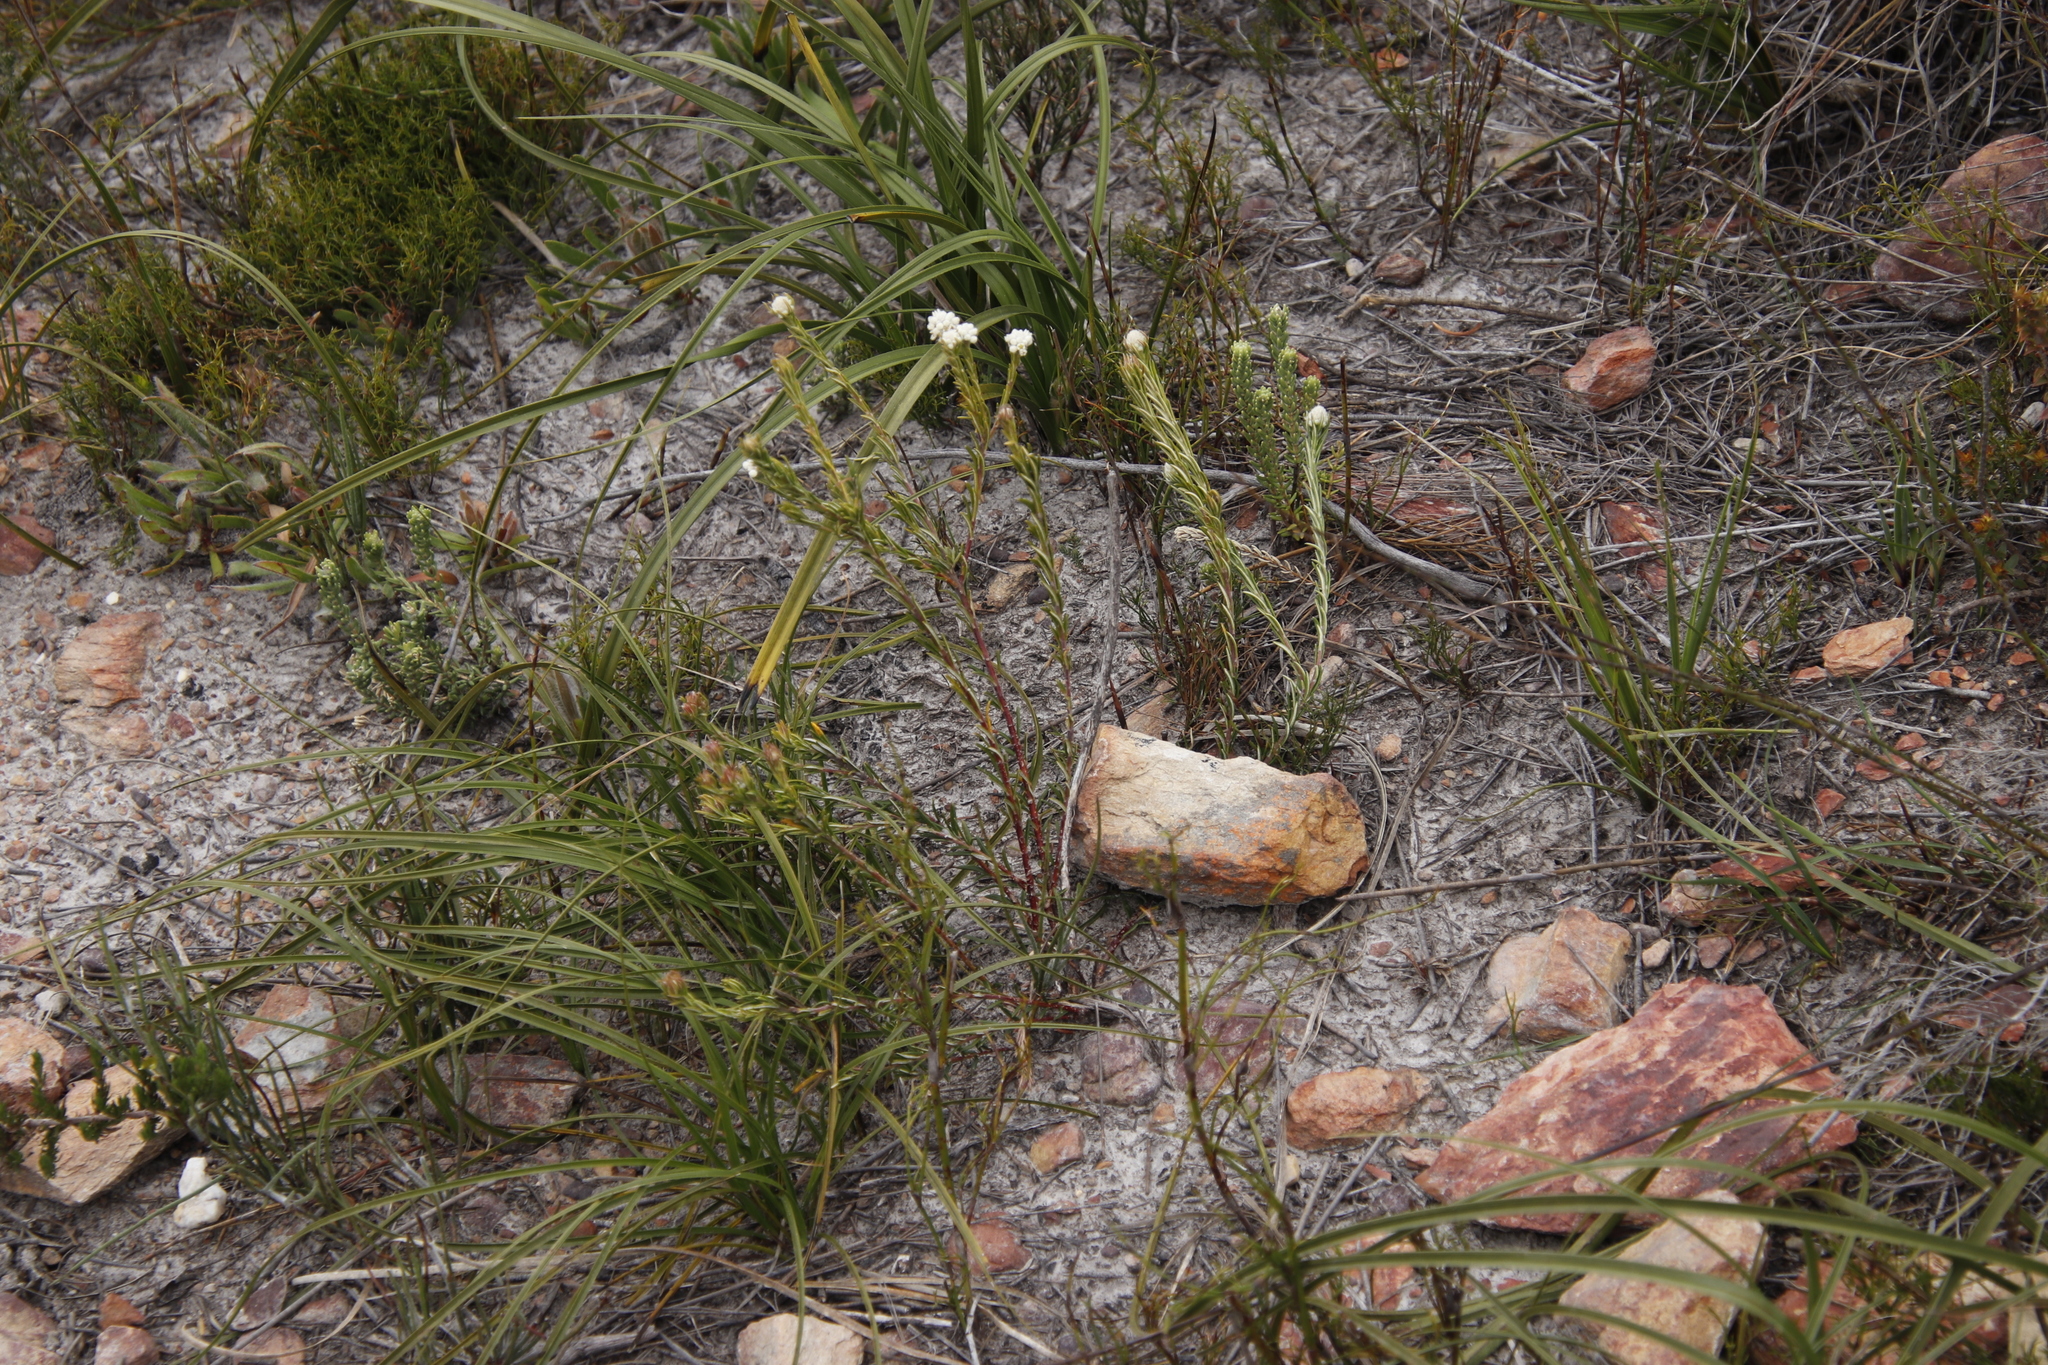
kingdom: Plantae
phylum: Tracheophyta
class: Magnoliopsida
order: Rosales
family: Rhamnaceae
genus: Phylica
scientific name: Phylica imberbis
